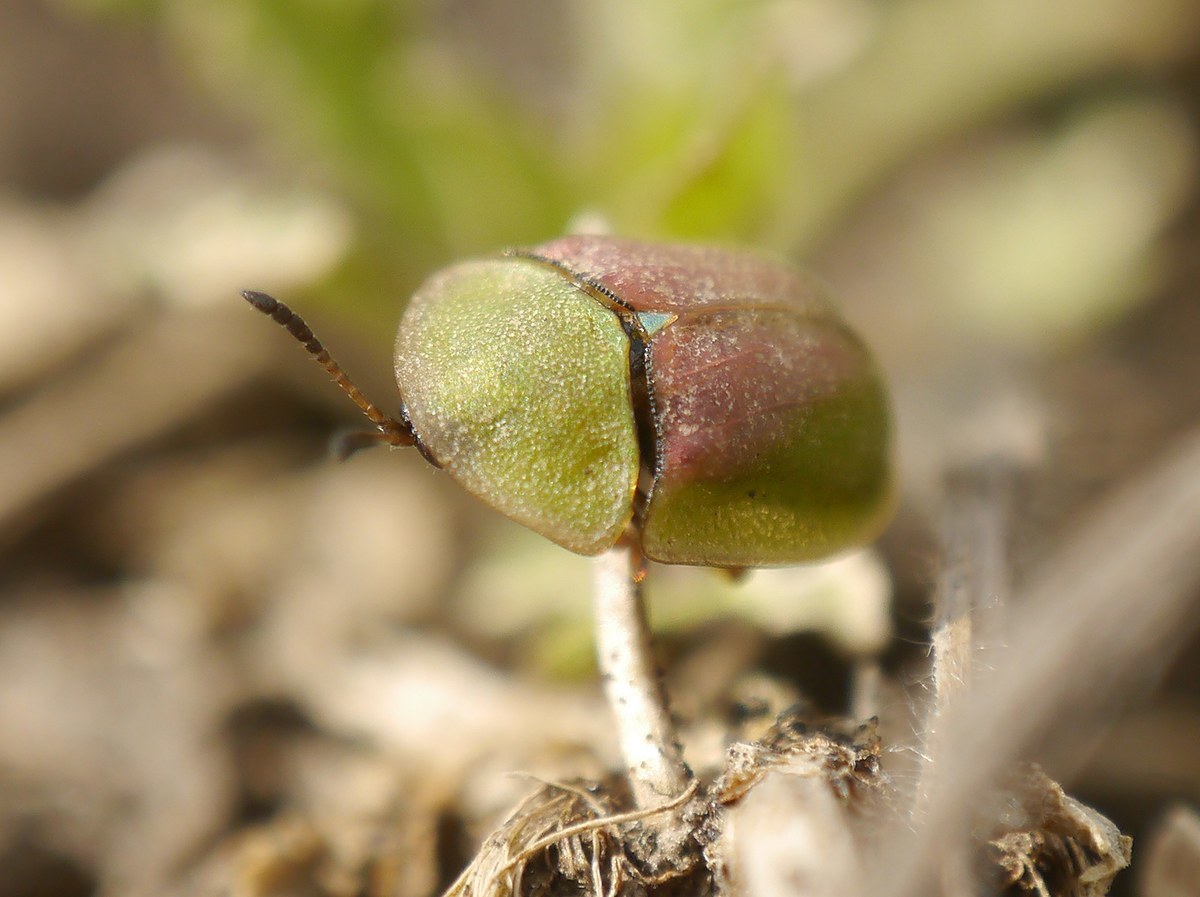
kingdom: Animalia
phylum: Arthropoda
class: Insecta
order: Coleoptera
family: Chrysomelidae
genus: Cassida
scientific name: Cassida rufovirens
